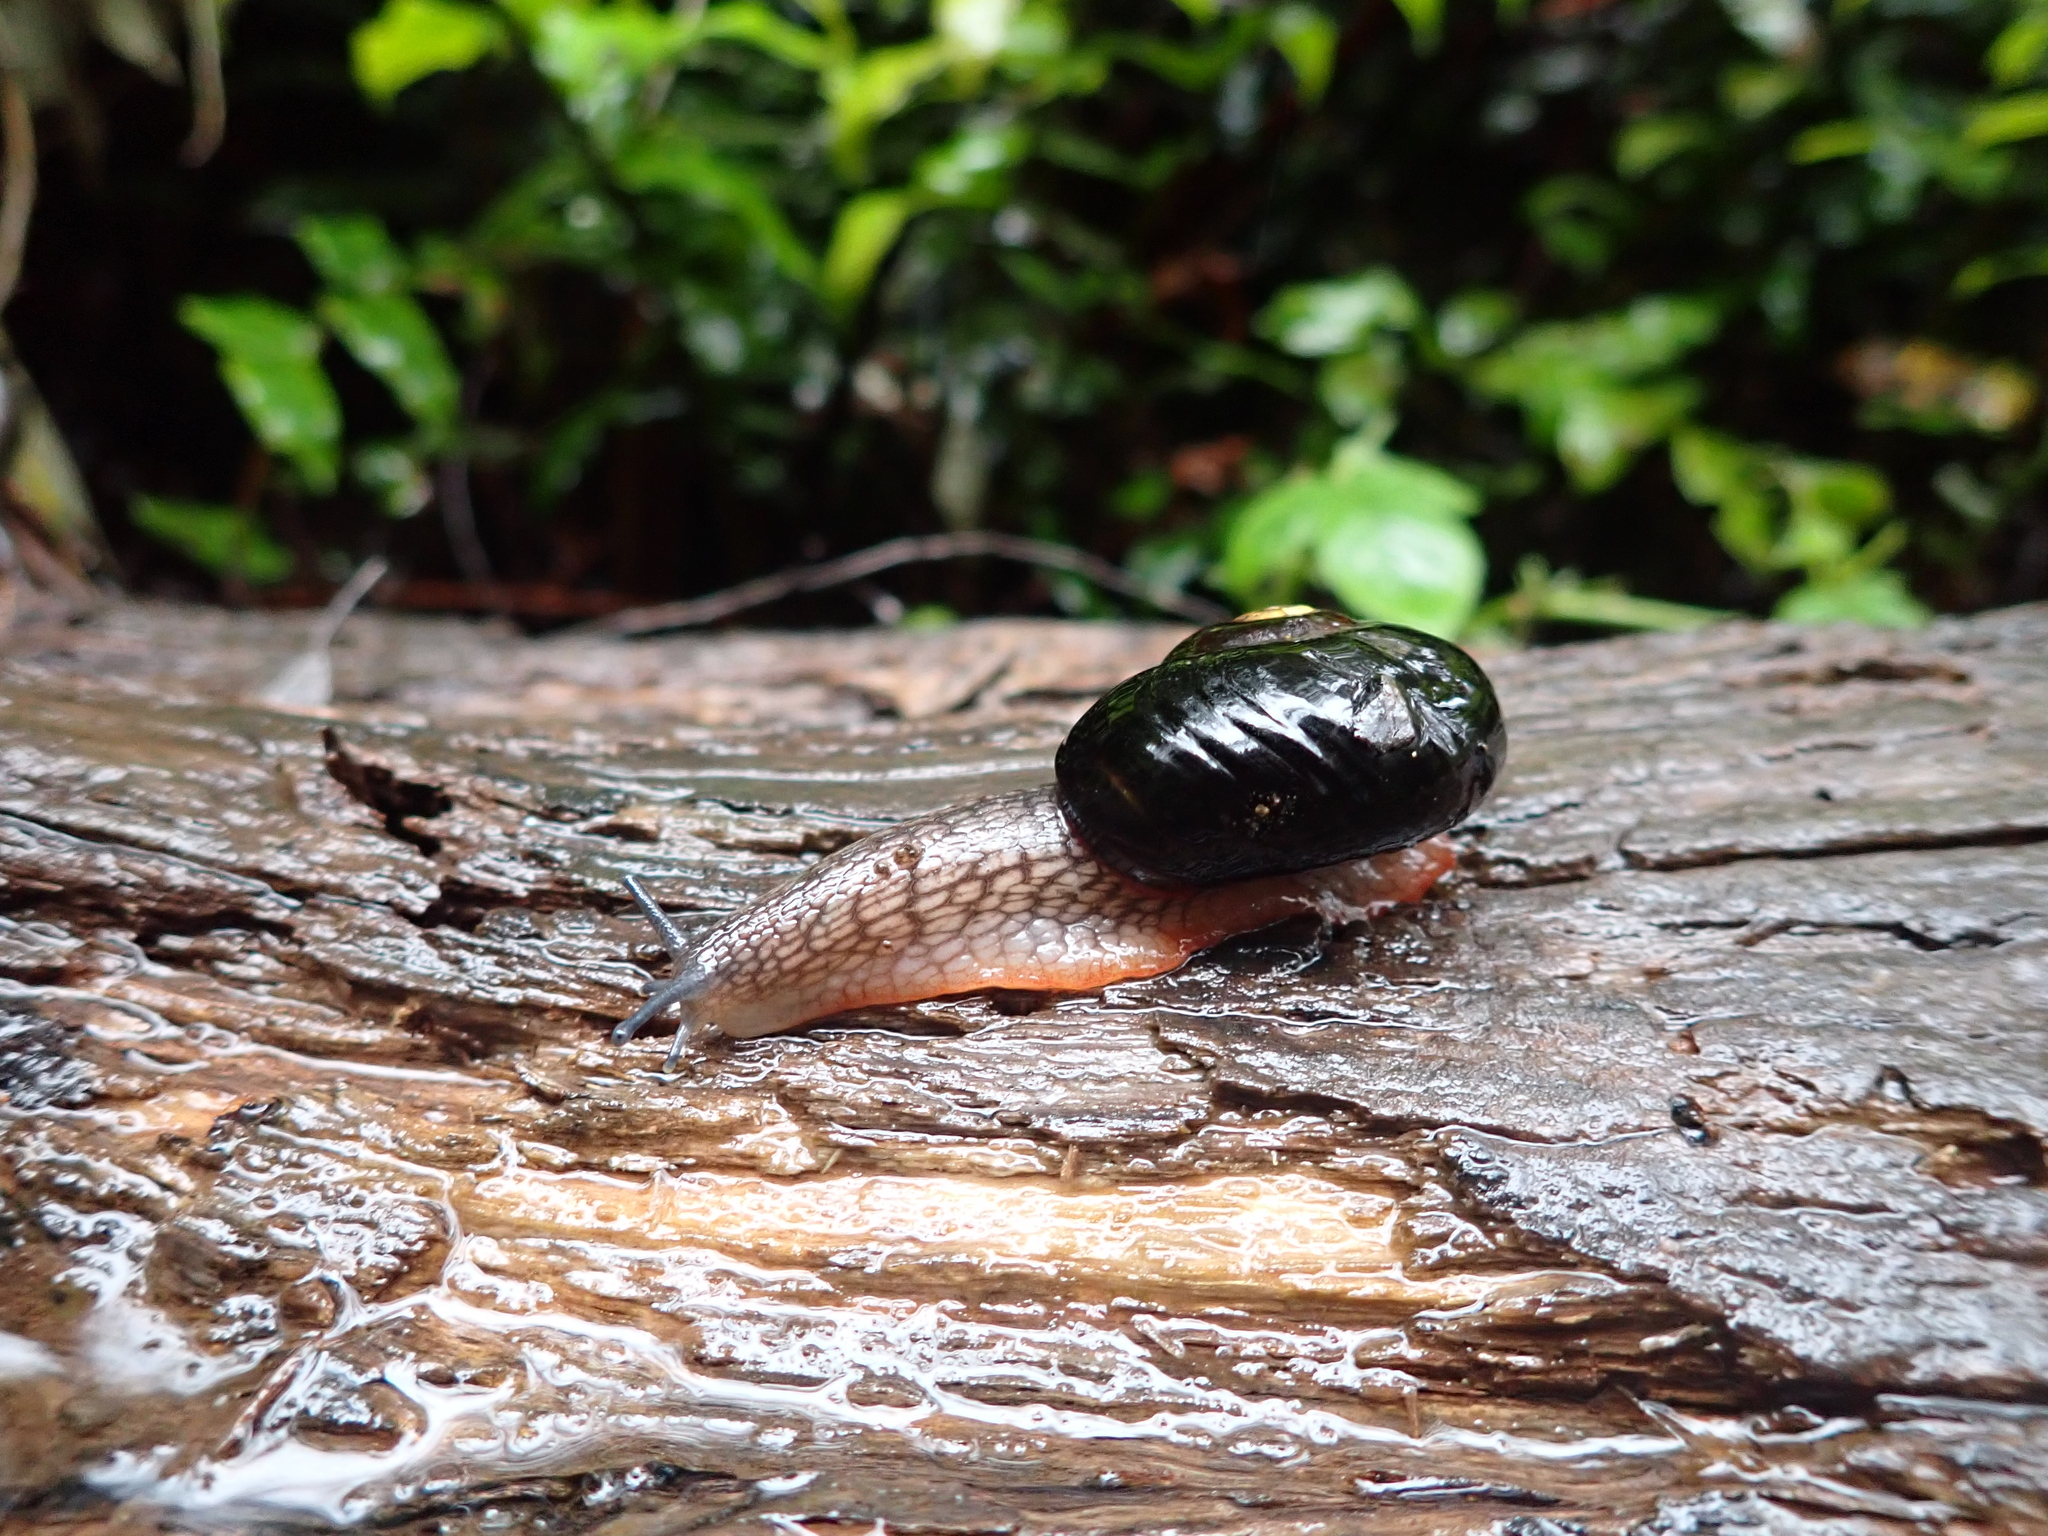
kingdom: Animalia
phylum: Mollusca
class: Gastropoda
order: Stylommatophora
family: Rhytididae
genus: Victaphanta
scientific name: Victaphanta atramentaria
